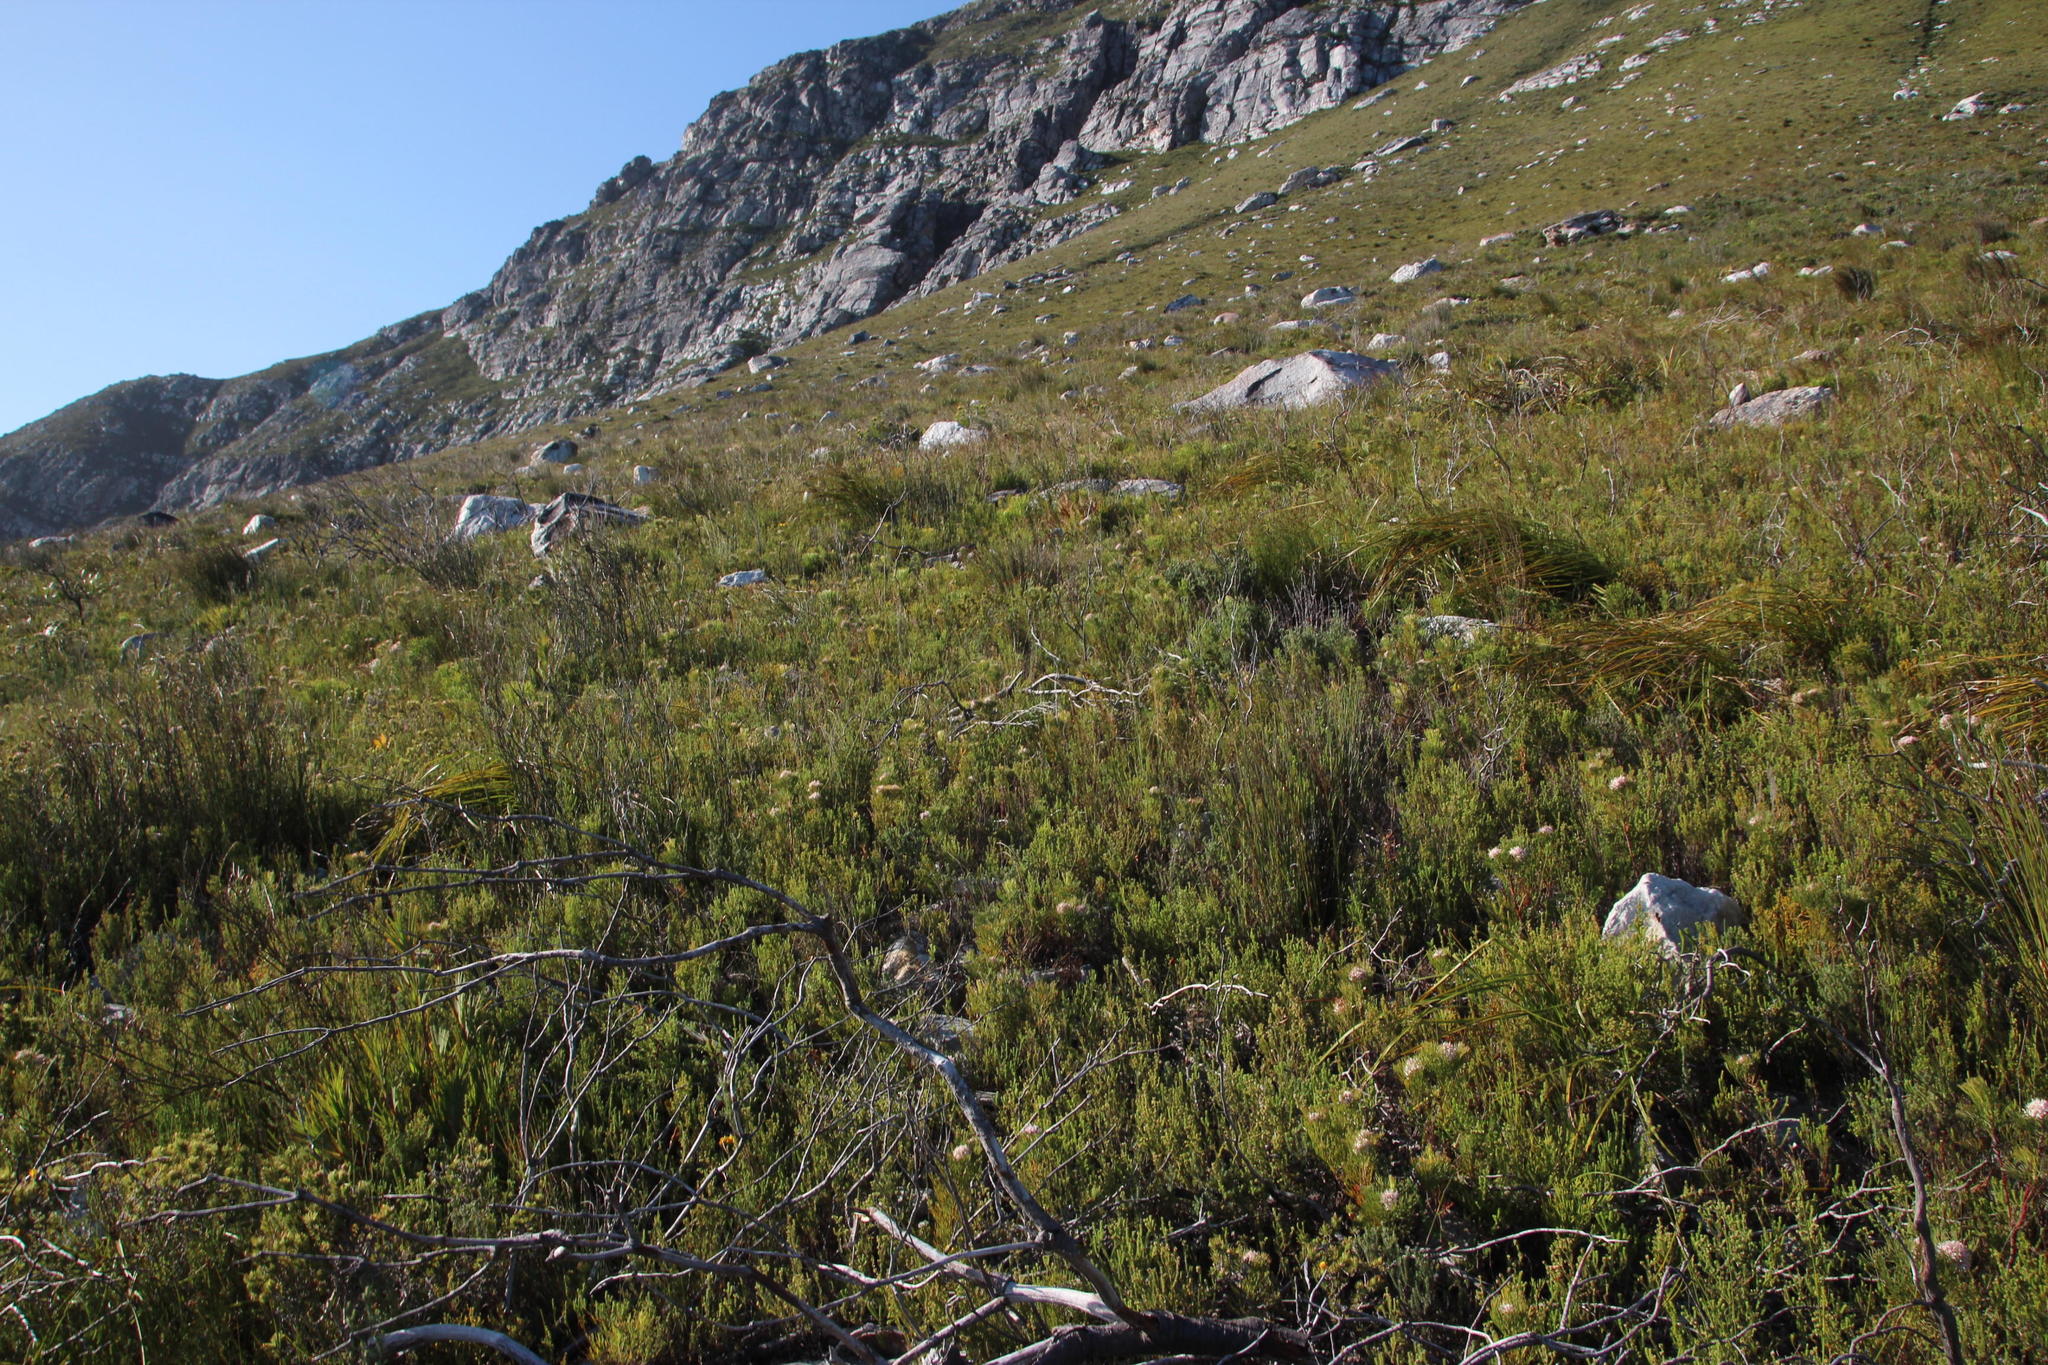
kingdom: Plantae
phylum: Tracheophyta
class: Magnoliopsida
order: Proteales
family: Proteaceae
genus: Serruria
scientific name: Serruria ascendens
